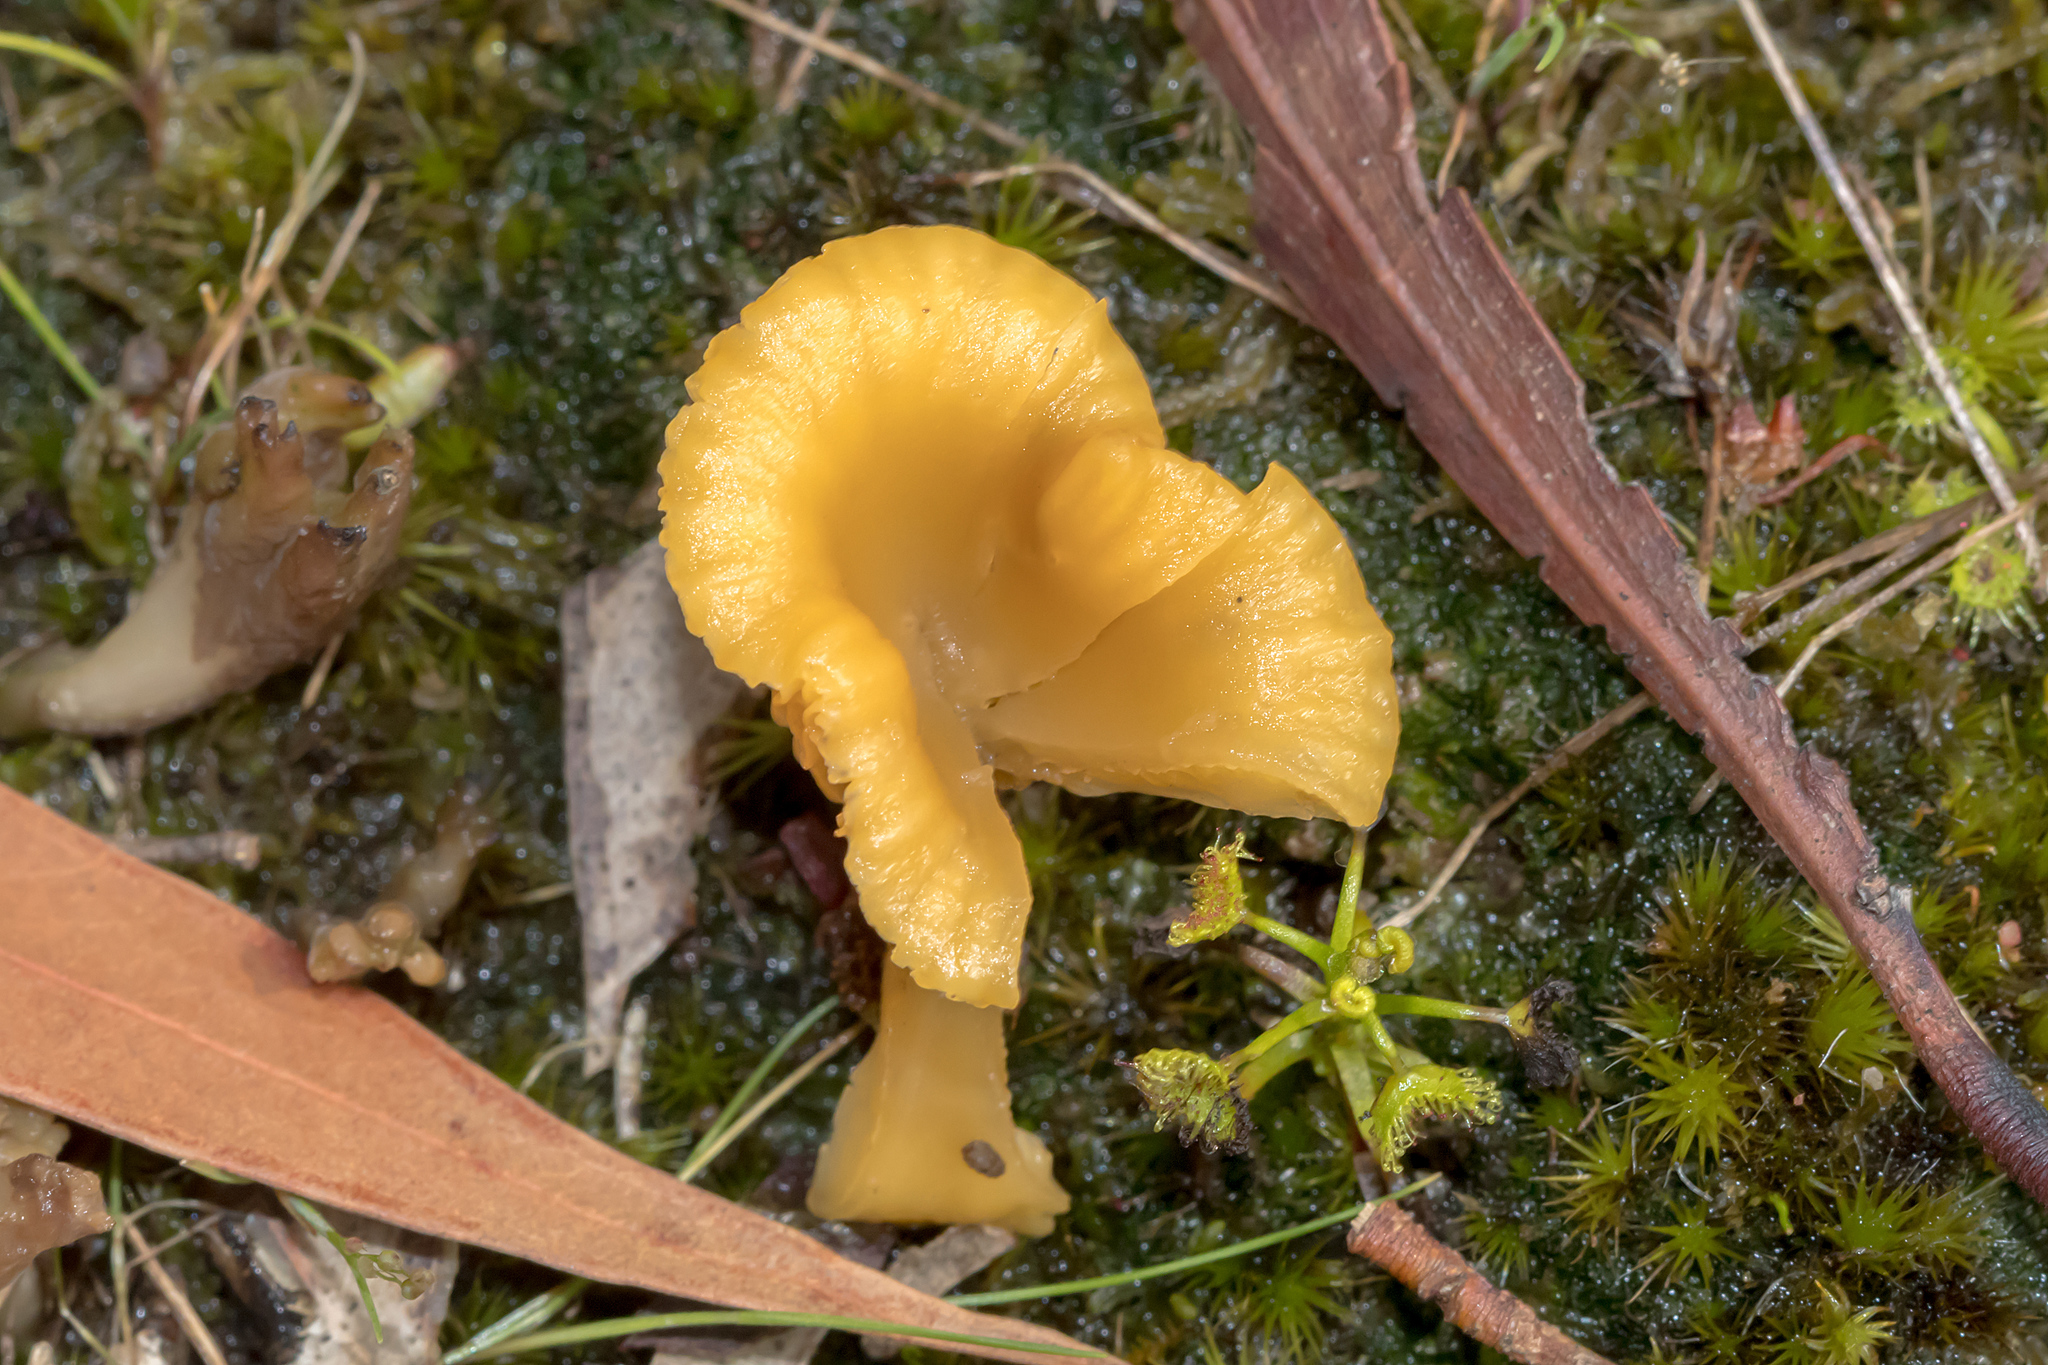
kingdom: Fungi
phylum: Basidiomycota
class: Agaricomycetes
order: Agaricales
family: Hygrophoraceae
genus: Lichenomphalia
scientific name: Lichenomphalia chromacea
